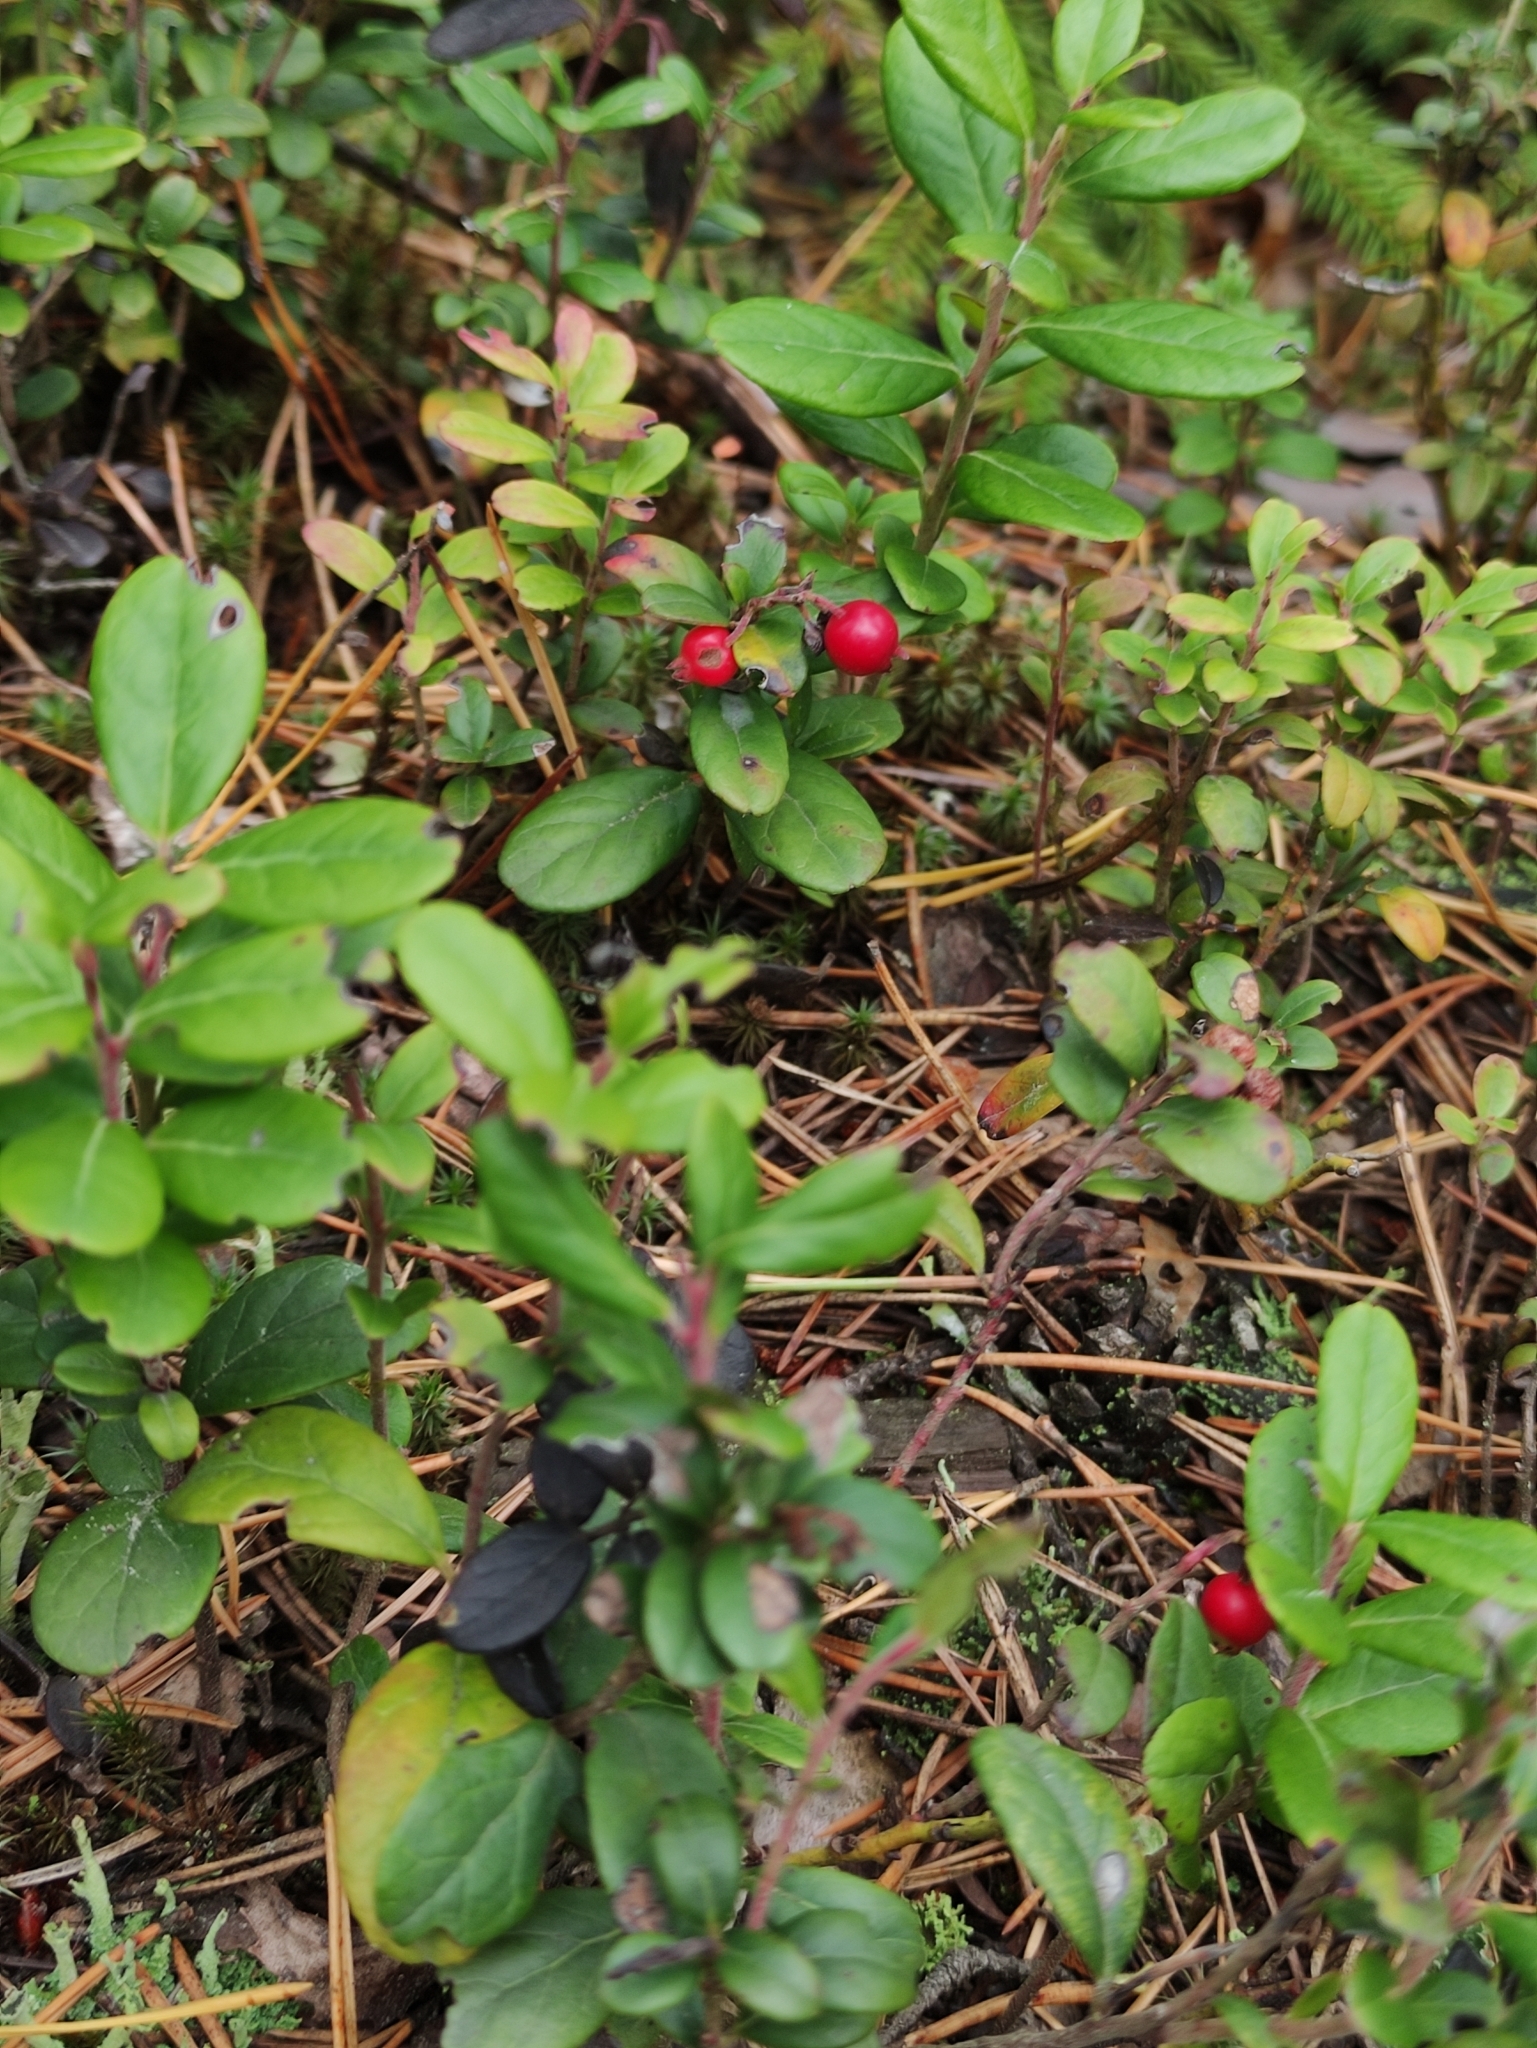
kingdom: Plantae
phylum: Tracheophyta
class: Magnoliopsida
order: Ericales
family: Ericaceae
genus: Vaccinium
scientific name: Vaccinium vitis-idaea
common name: Cowberry
